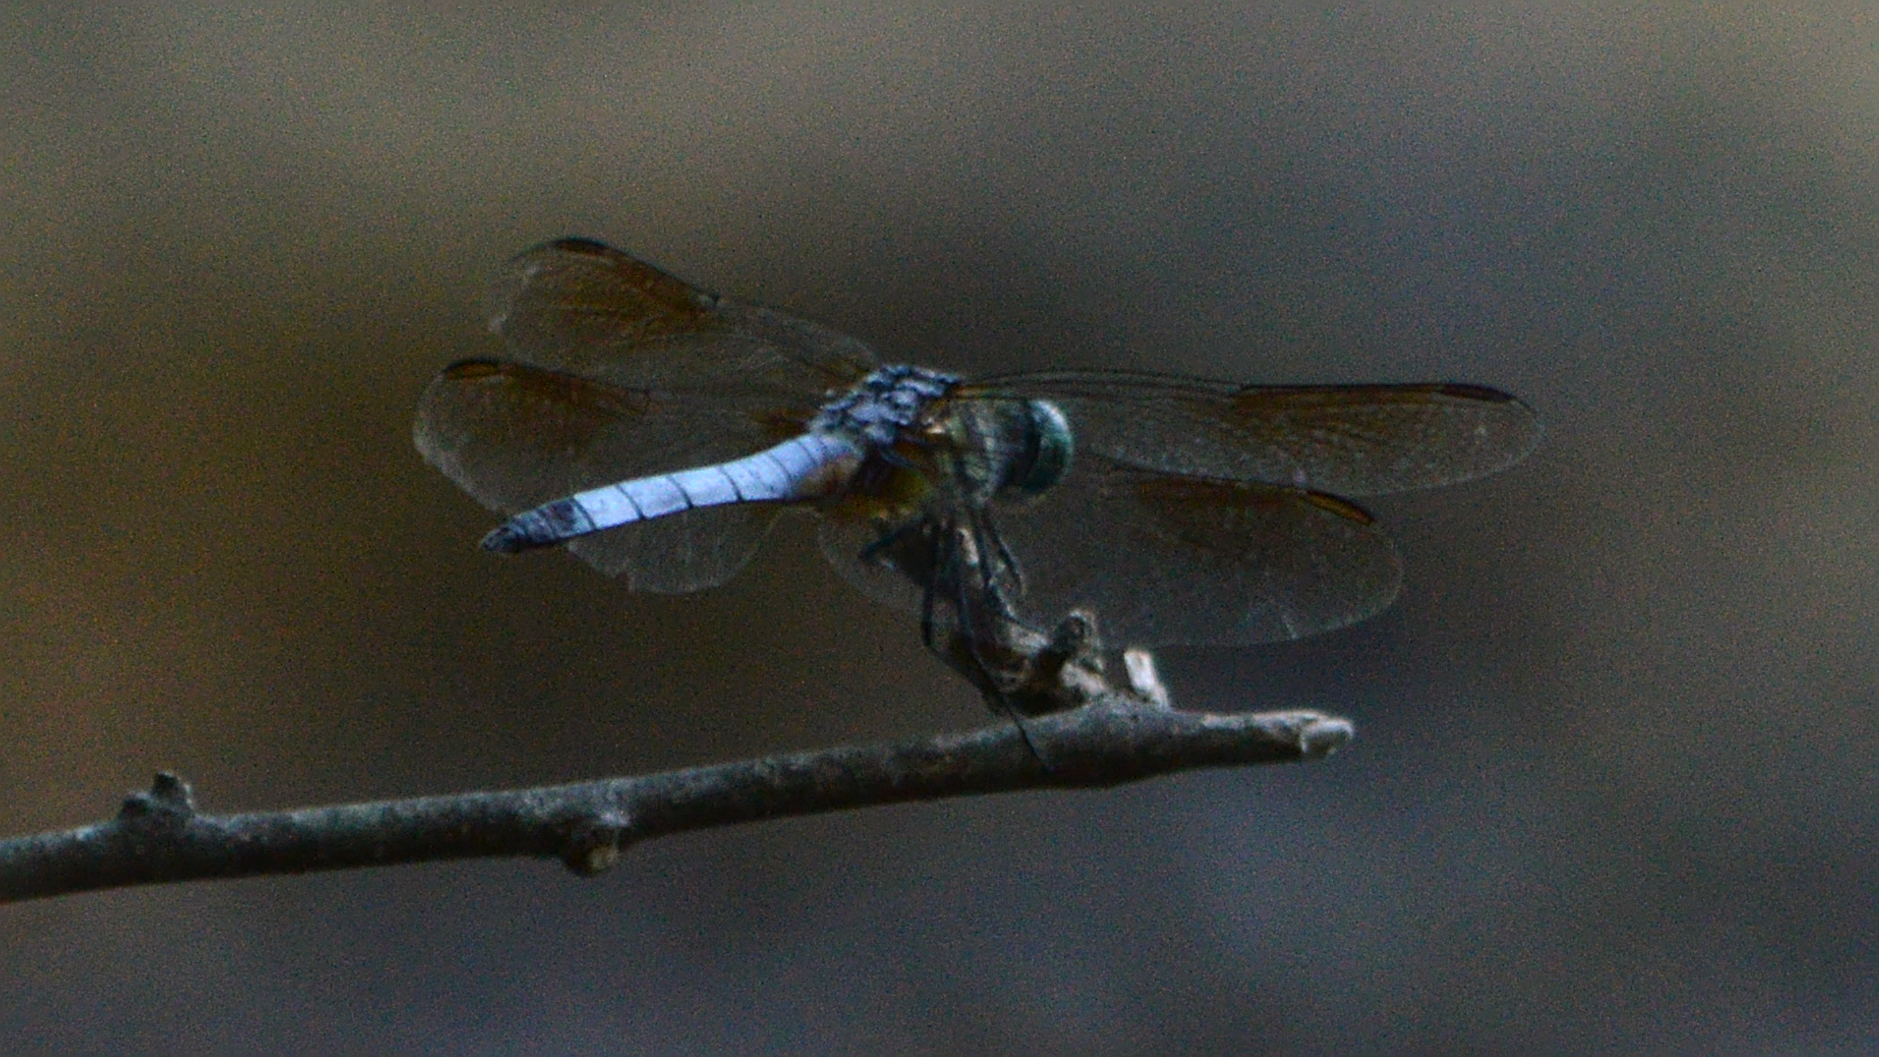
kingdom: Animalia
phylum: Arthropoda
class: Insecta
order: Odonata
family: Libellulidae
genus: Pachydiplax
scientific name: Pachydiplax longipennis
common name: Blue dasher
